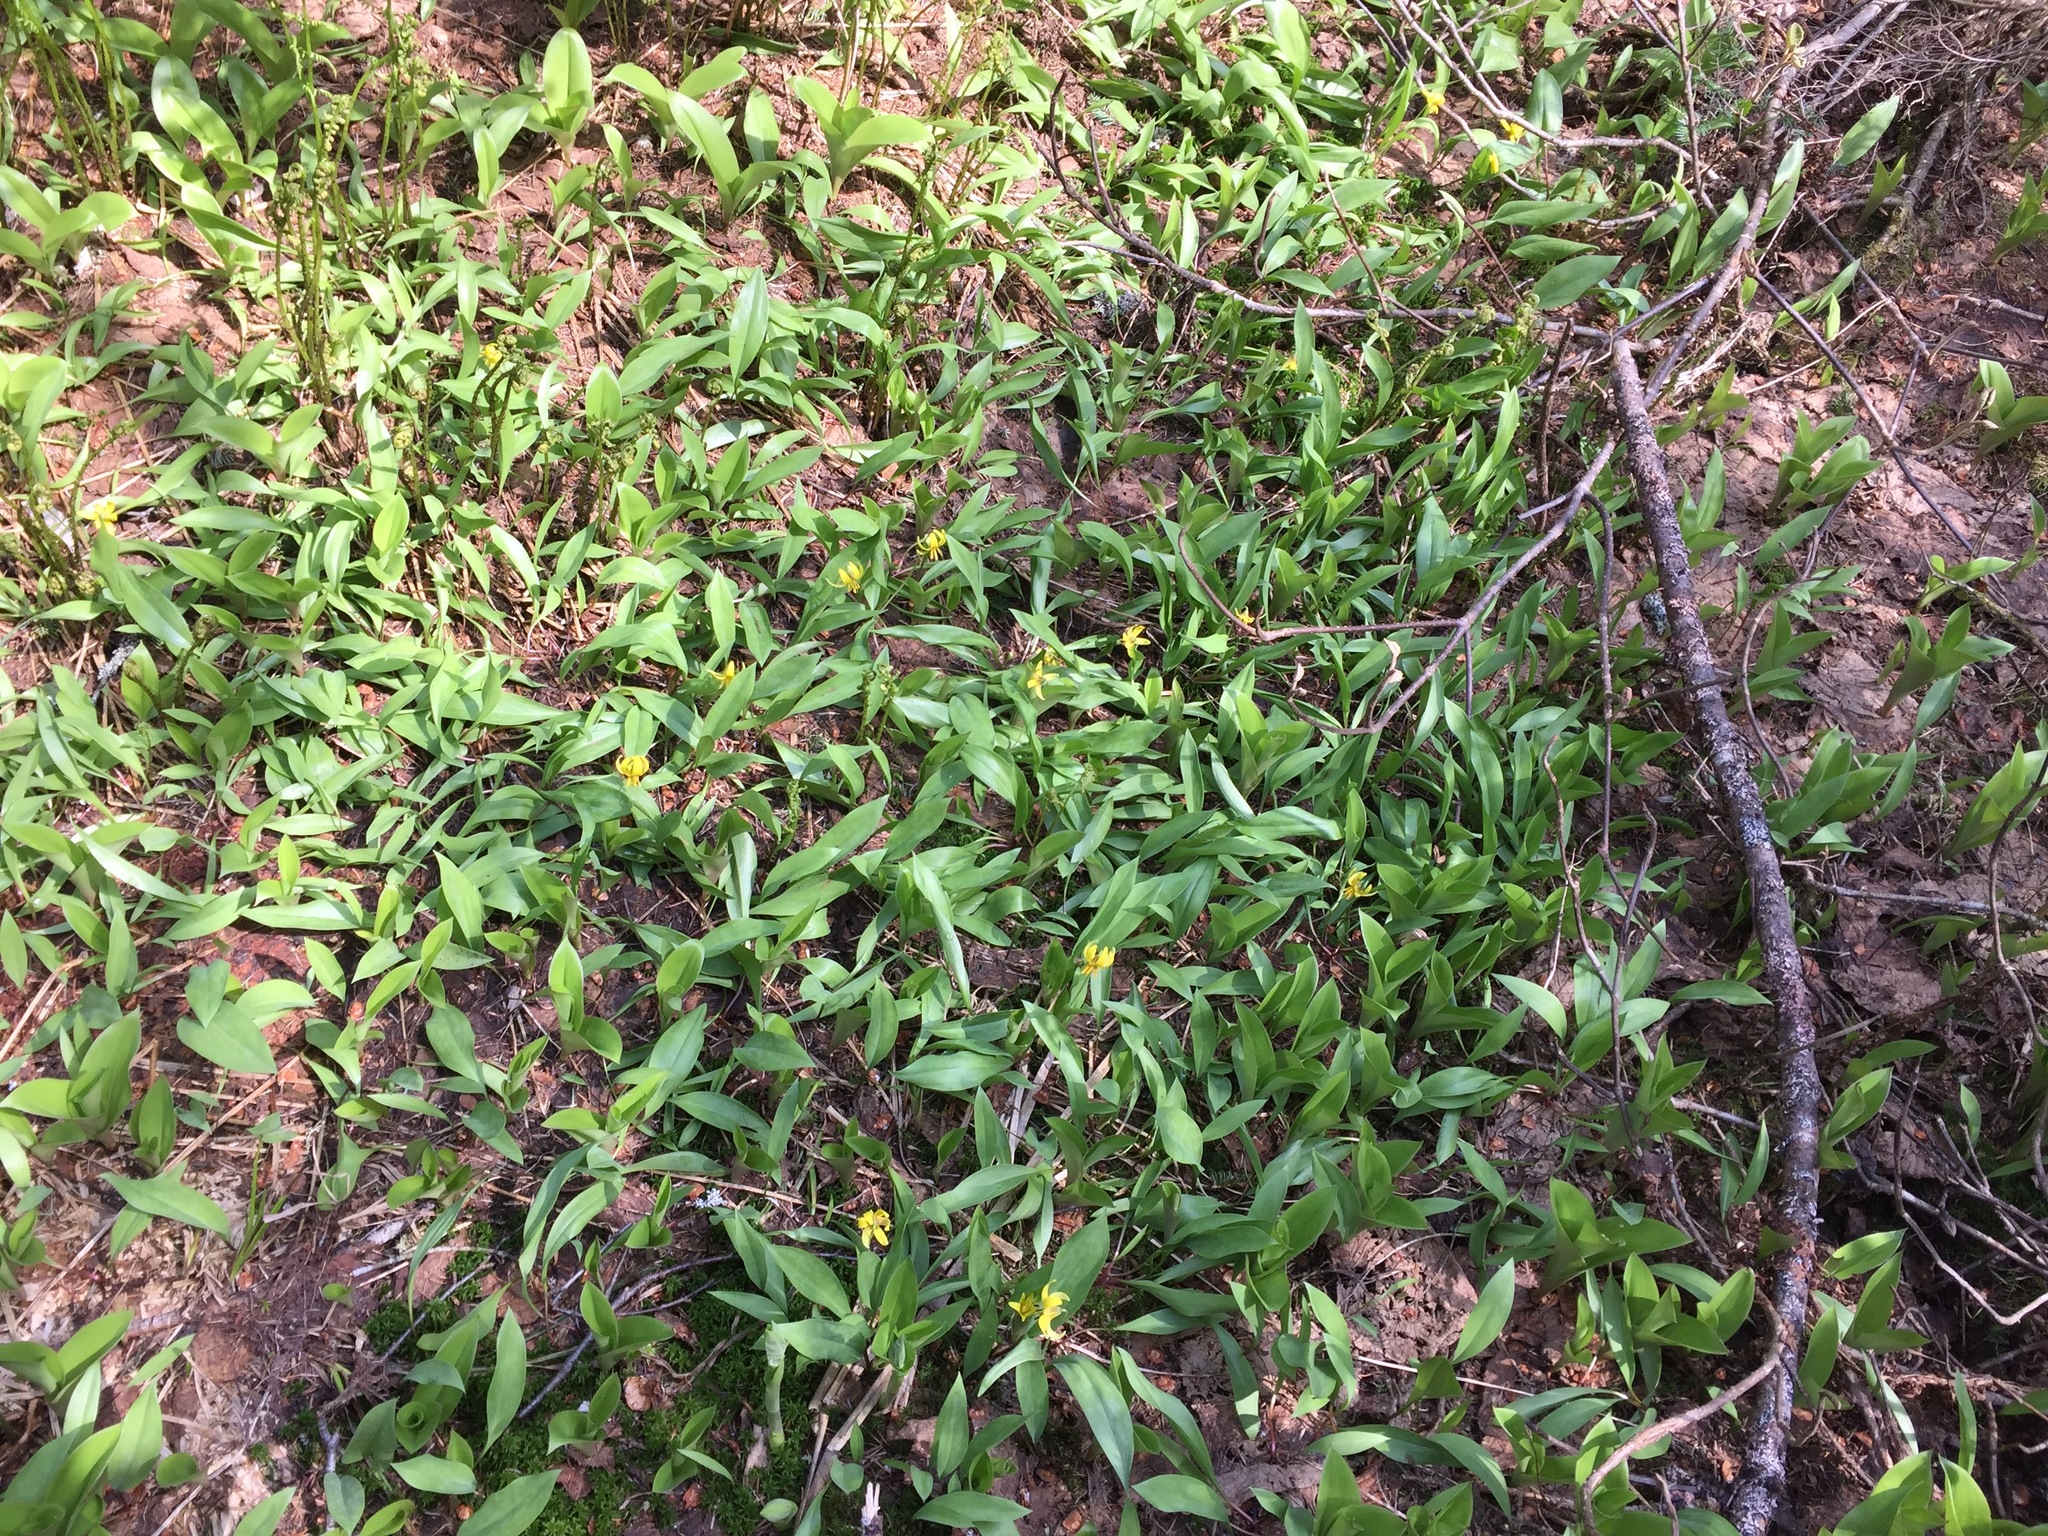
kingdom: Plantae
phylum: Tracheophyta
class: Liliopsida
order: Liliales
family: Liliaceae
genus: Erythronium
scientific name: Erythronium americanum
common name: Yellow adder's-tongue
